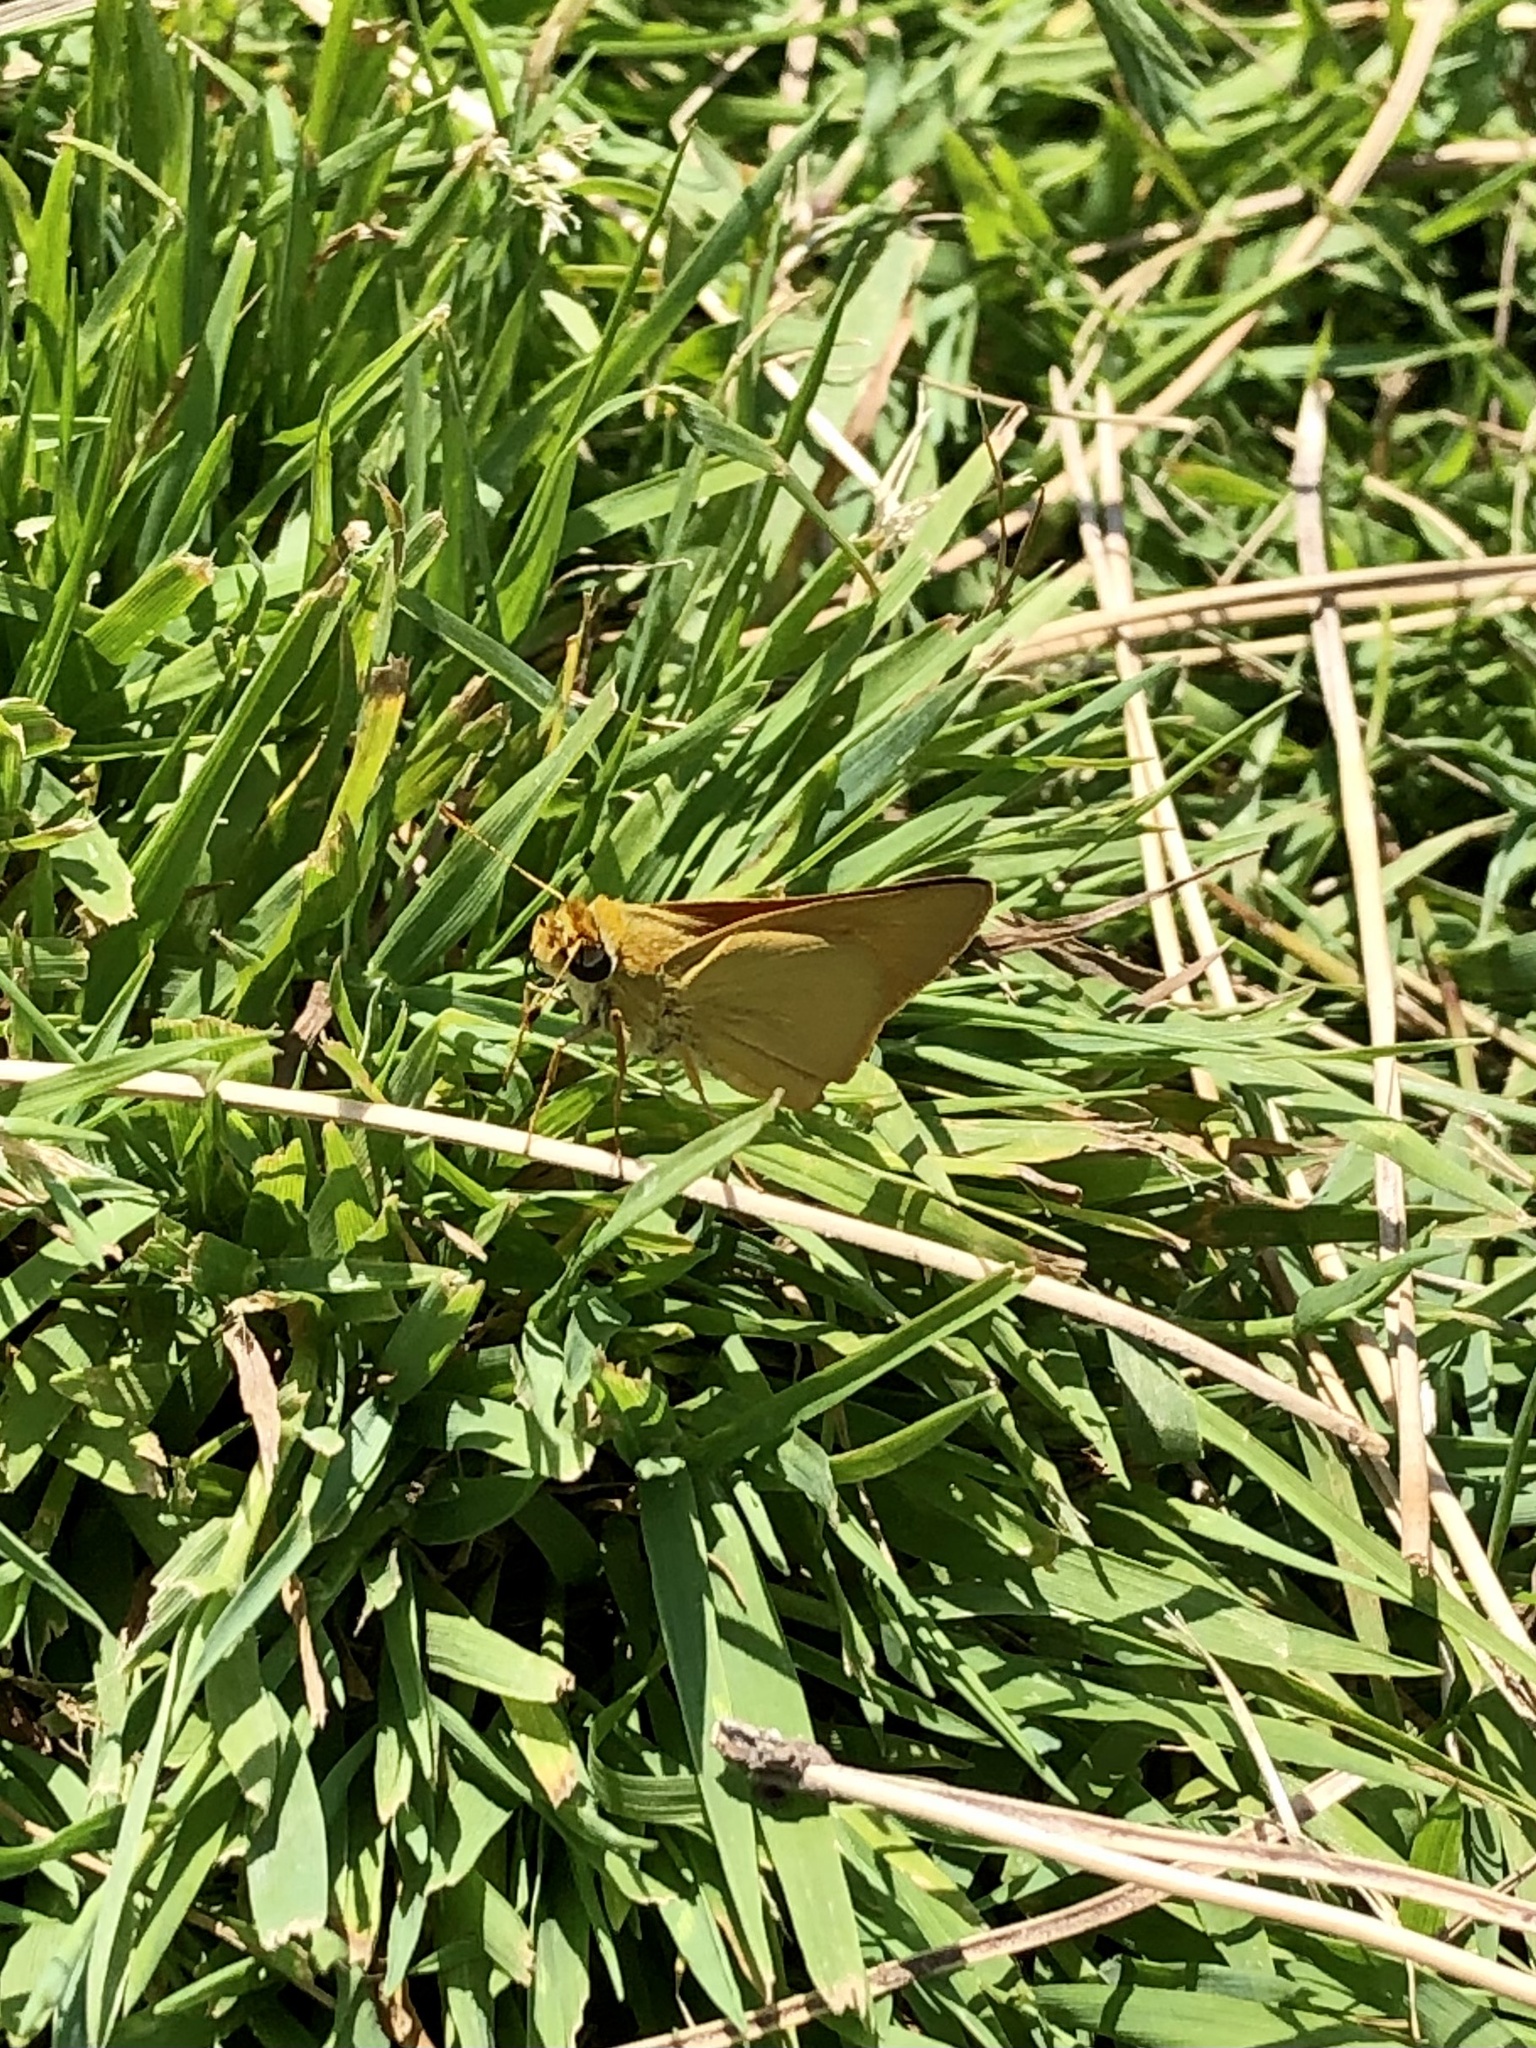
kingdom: Animalia
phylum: Arthropoda
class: Insecta
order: Lepidoptera
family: Hesperiidae
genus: Atrytone
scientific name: Atrytone delaware
